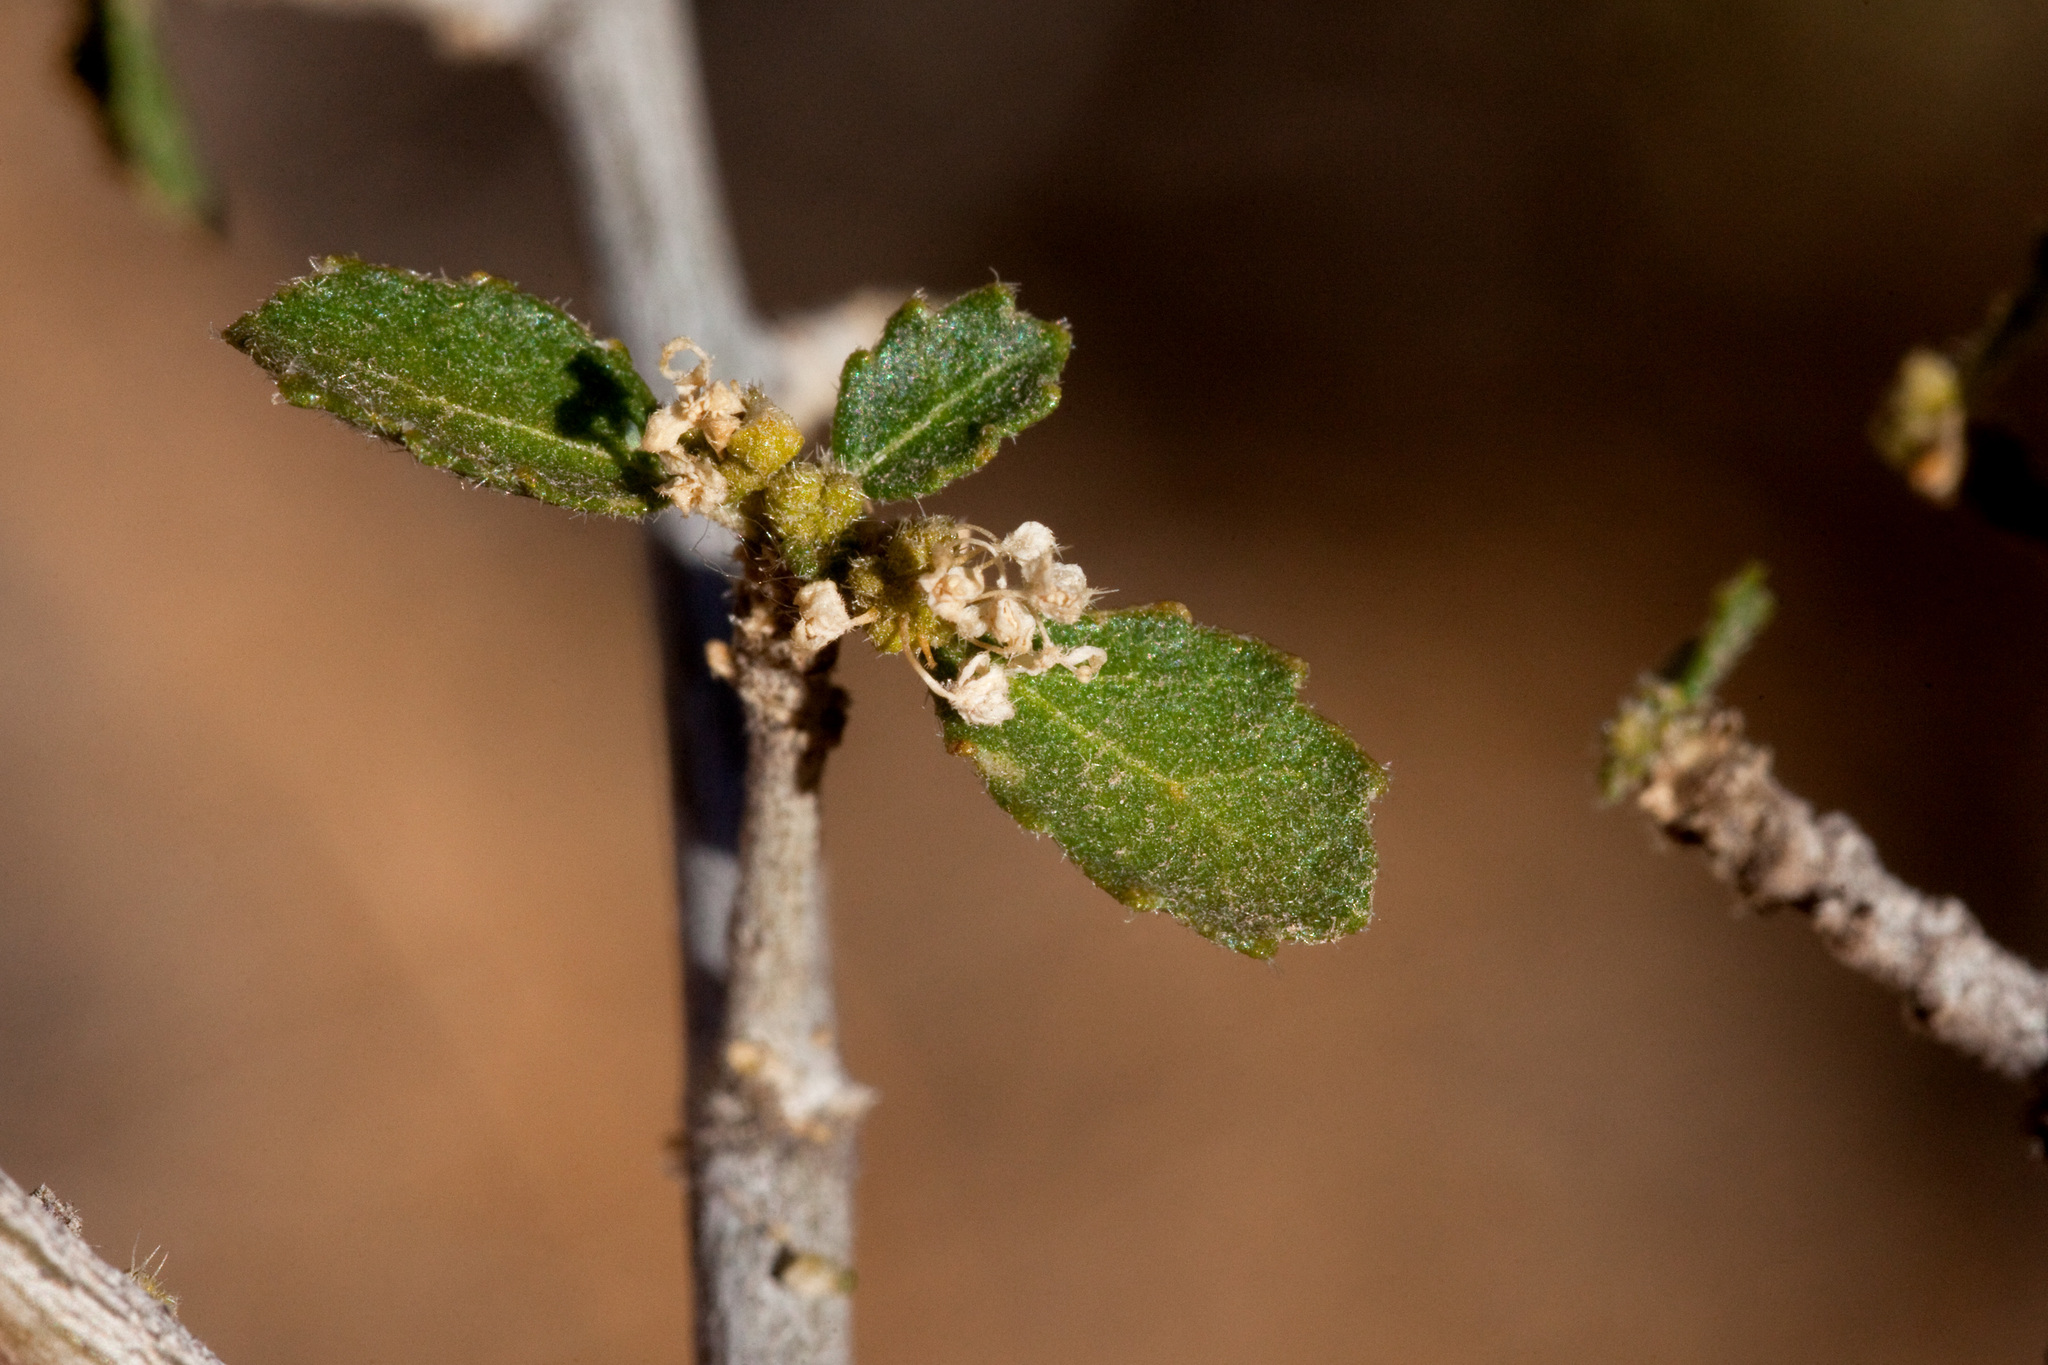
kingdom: Plantae
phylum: Tracheophyta
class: Magnoliopsida
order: Malpighiales
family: Euphorbiaceae
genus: Bernardia
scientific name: Bernardia obovata
